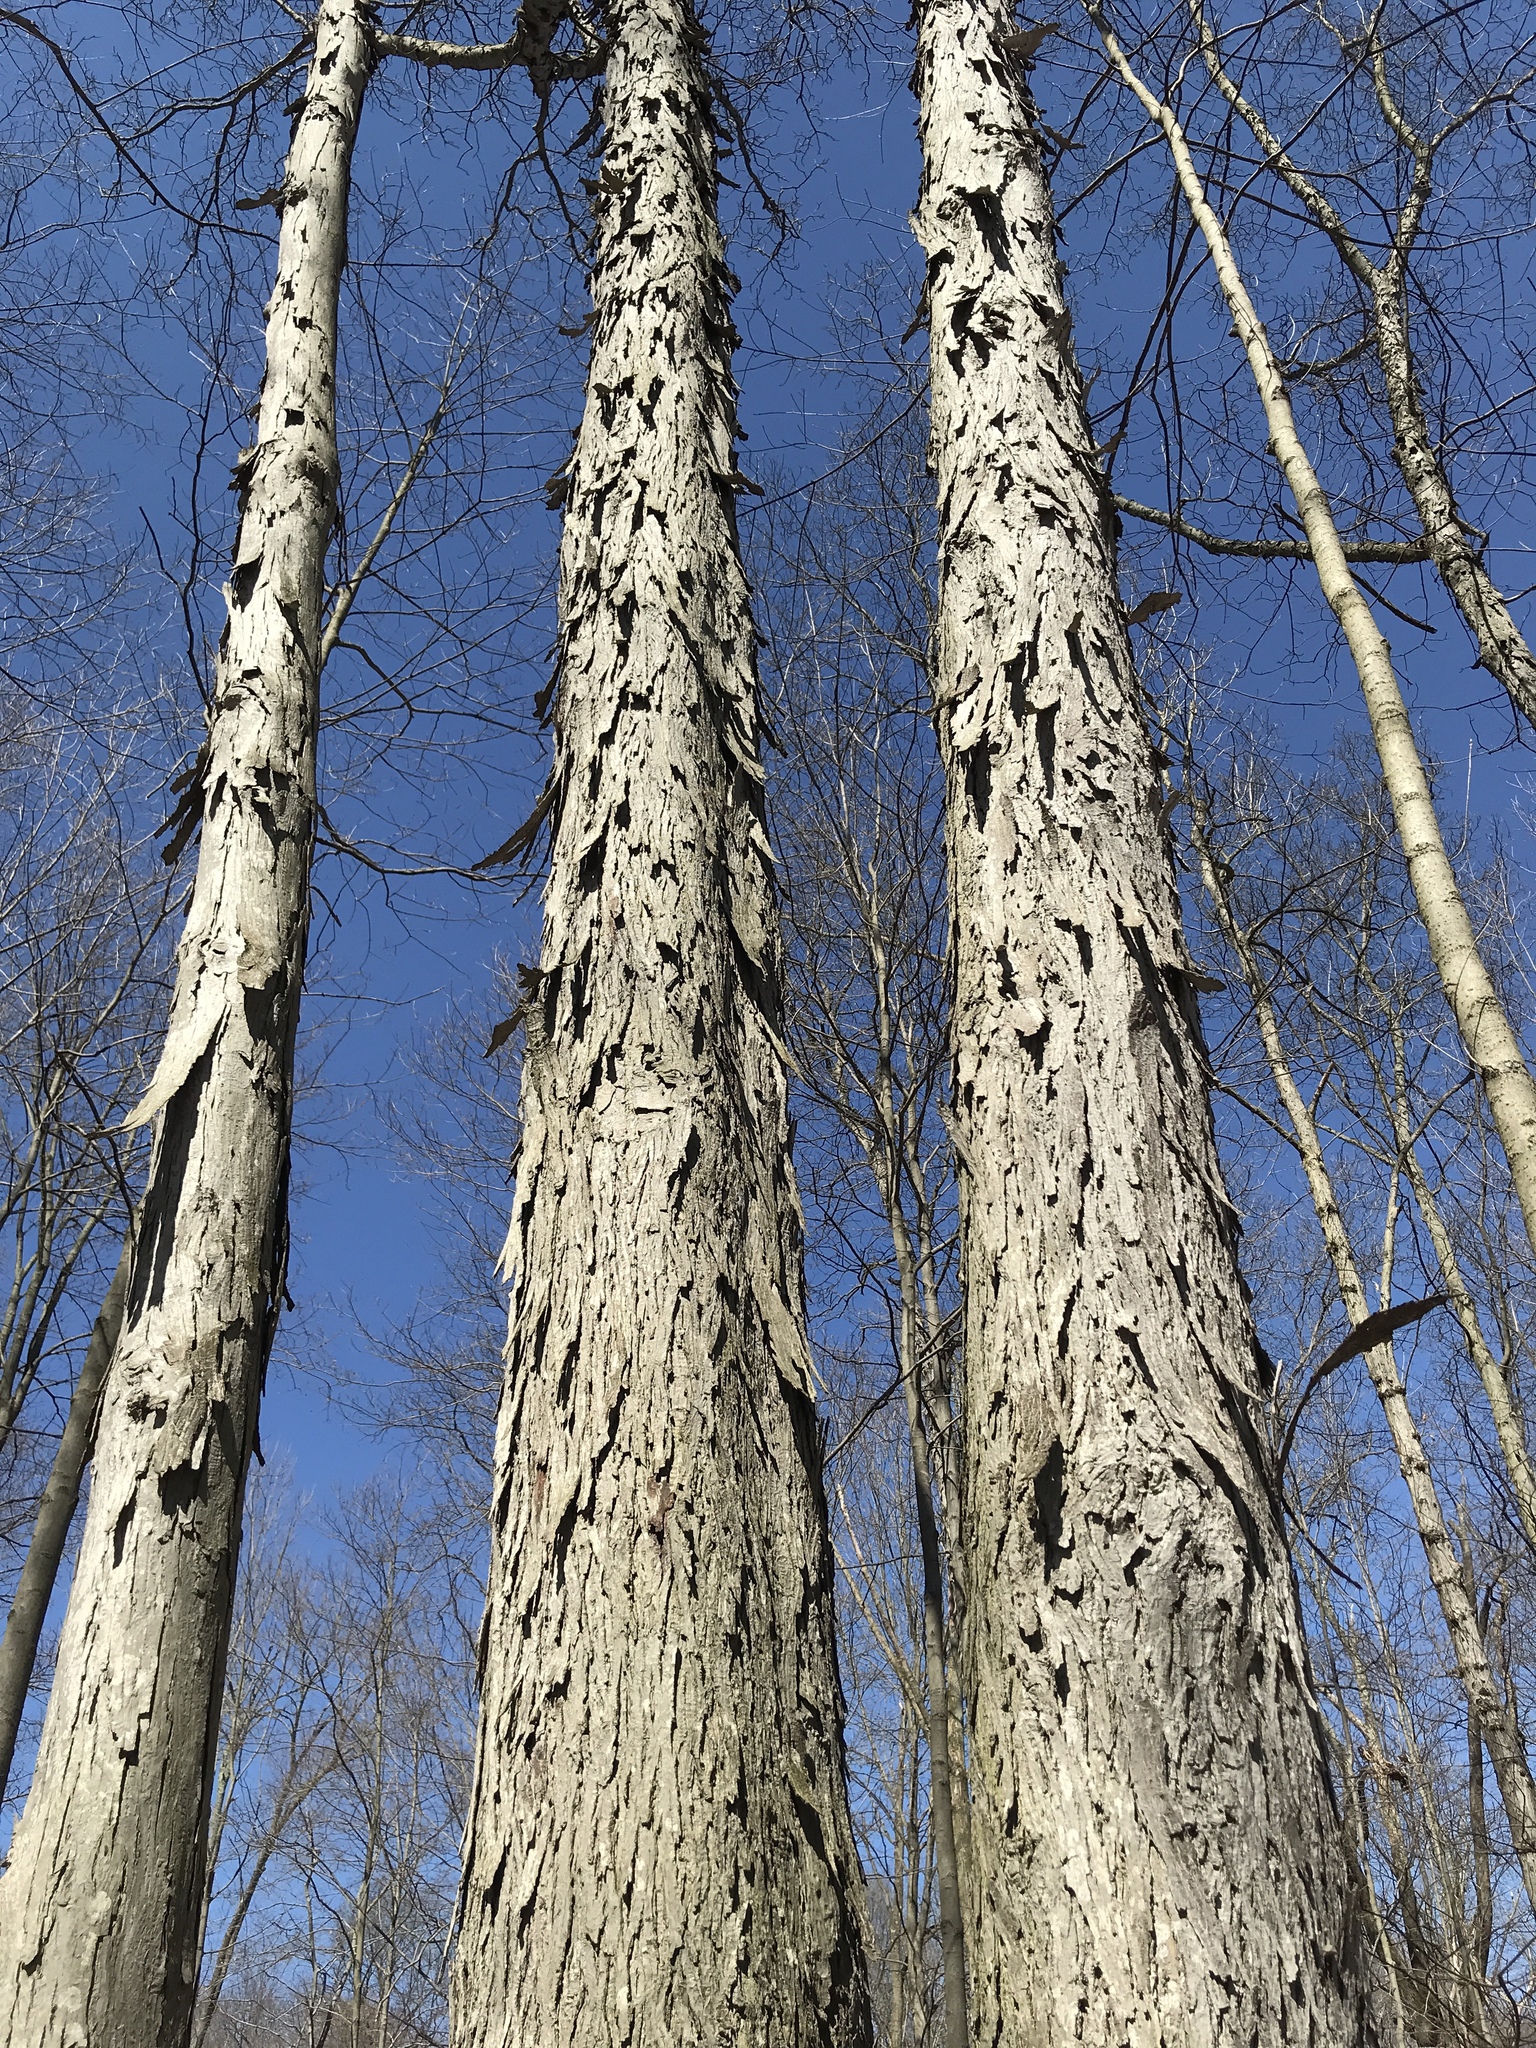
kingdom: Plantae
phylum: Tracheophyta
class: Magnoliopsida
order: Fagales
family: Juglandaceae
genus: Carya
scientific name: Carya ovata
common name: Shagbark hickory
